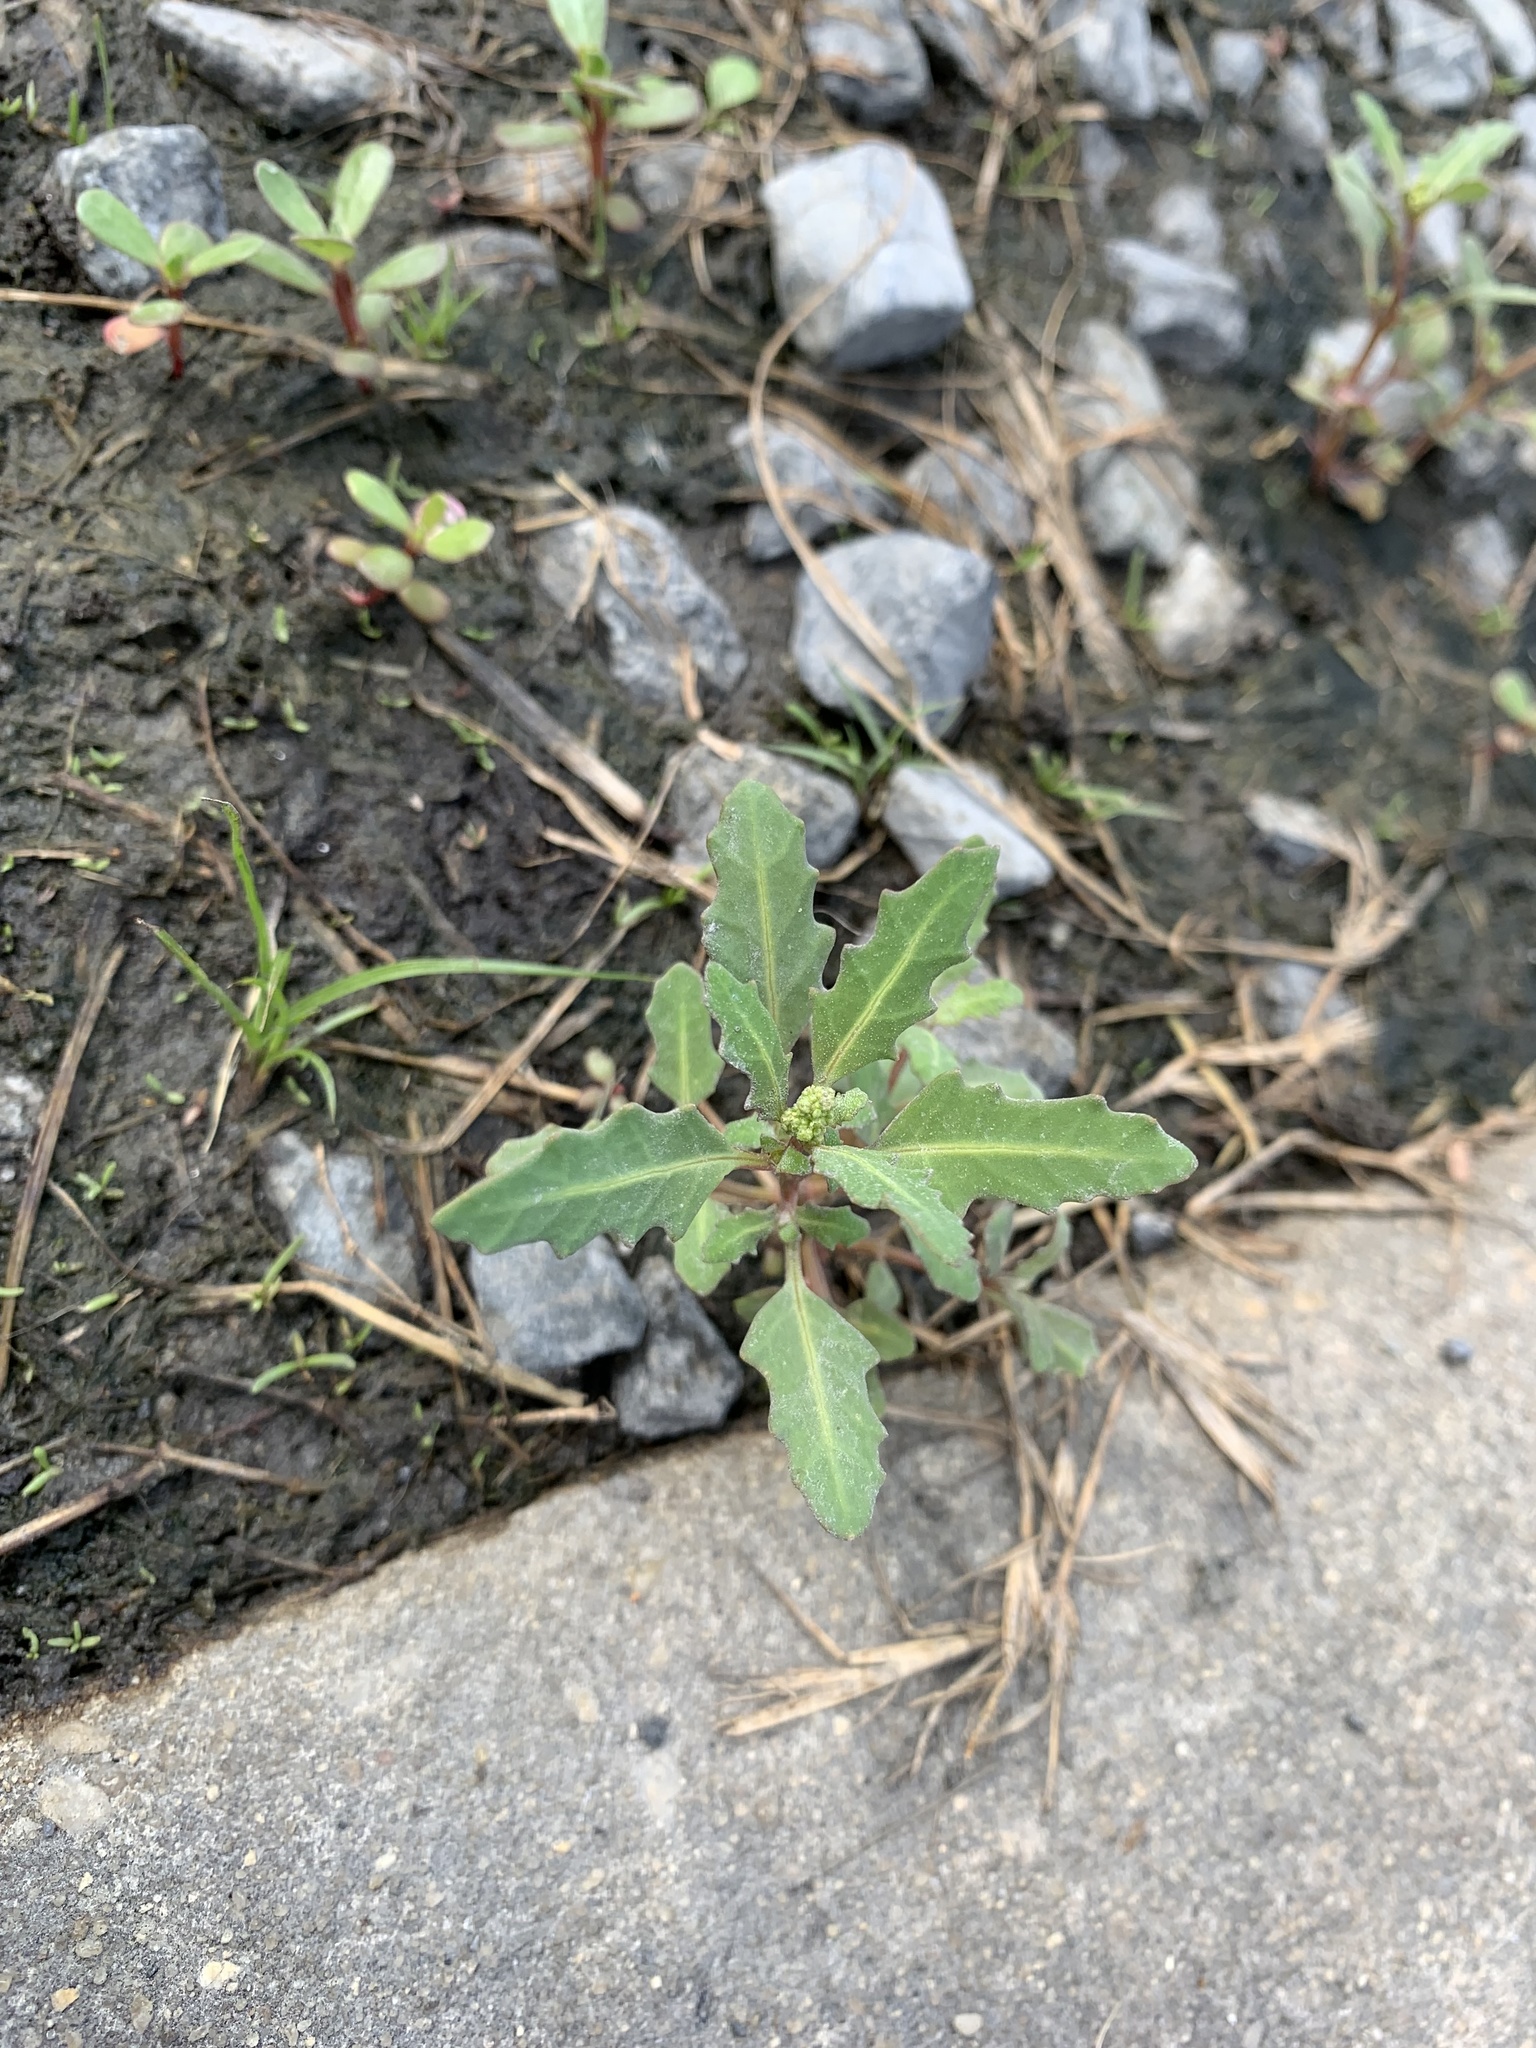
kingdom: Plantae
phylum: Tracheophyta
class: Magnoliopsida
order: Caryophyllales
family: Amaranthaceae
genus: Oxybasis
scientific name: Oxybasis glauca
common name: Glaucous goosefoot
